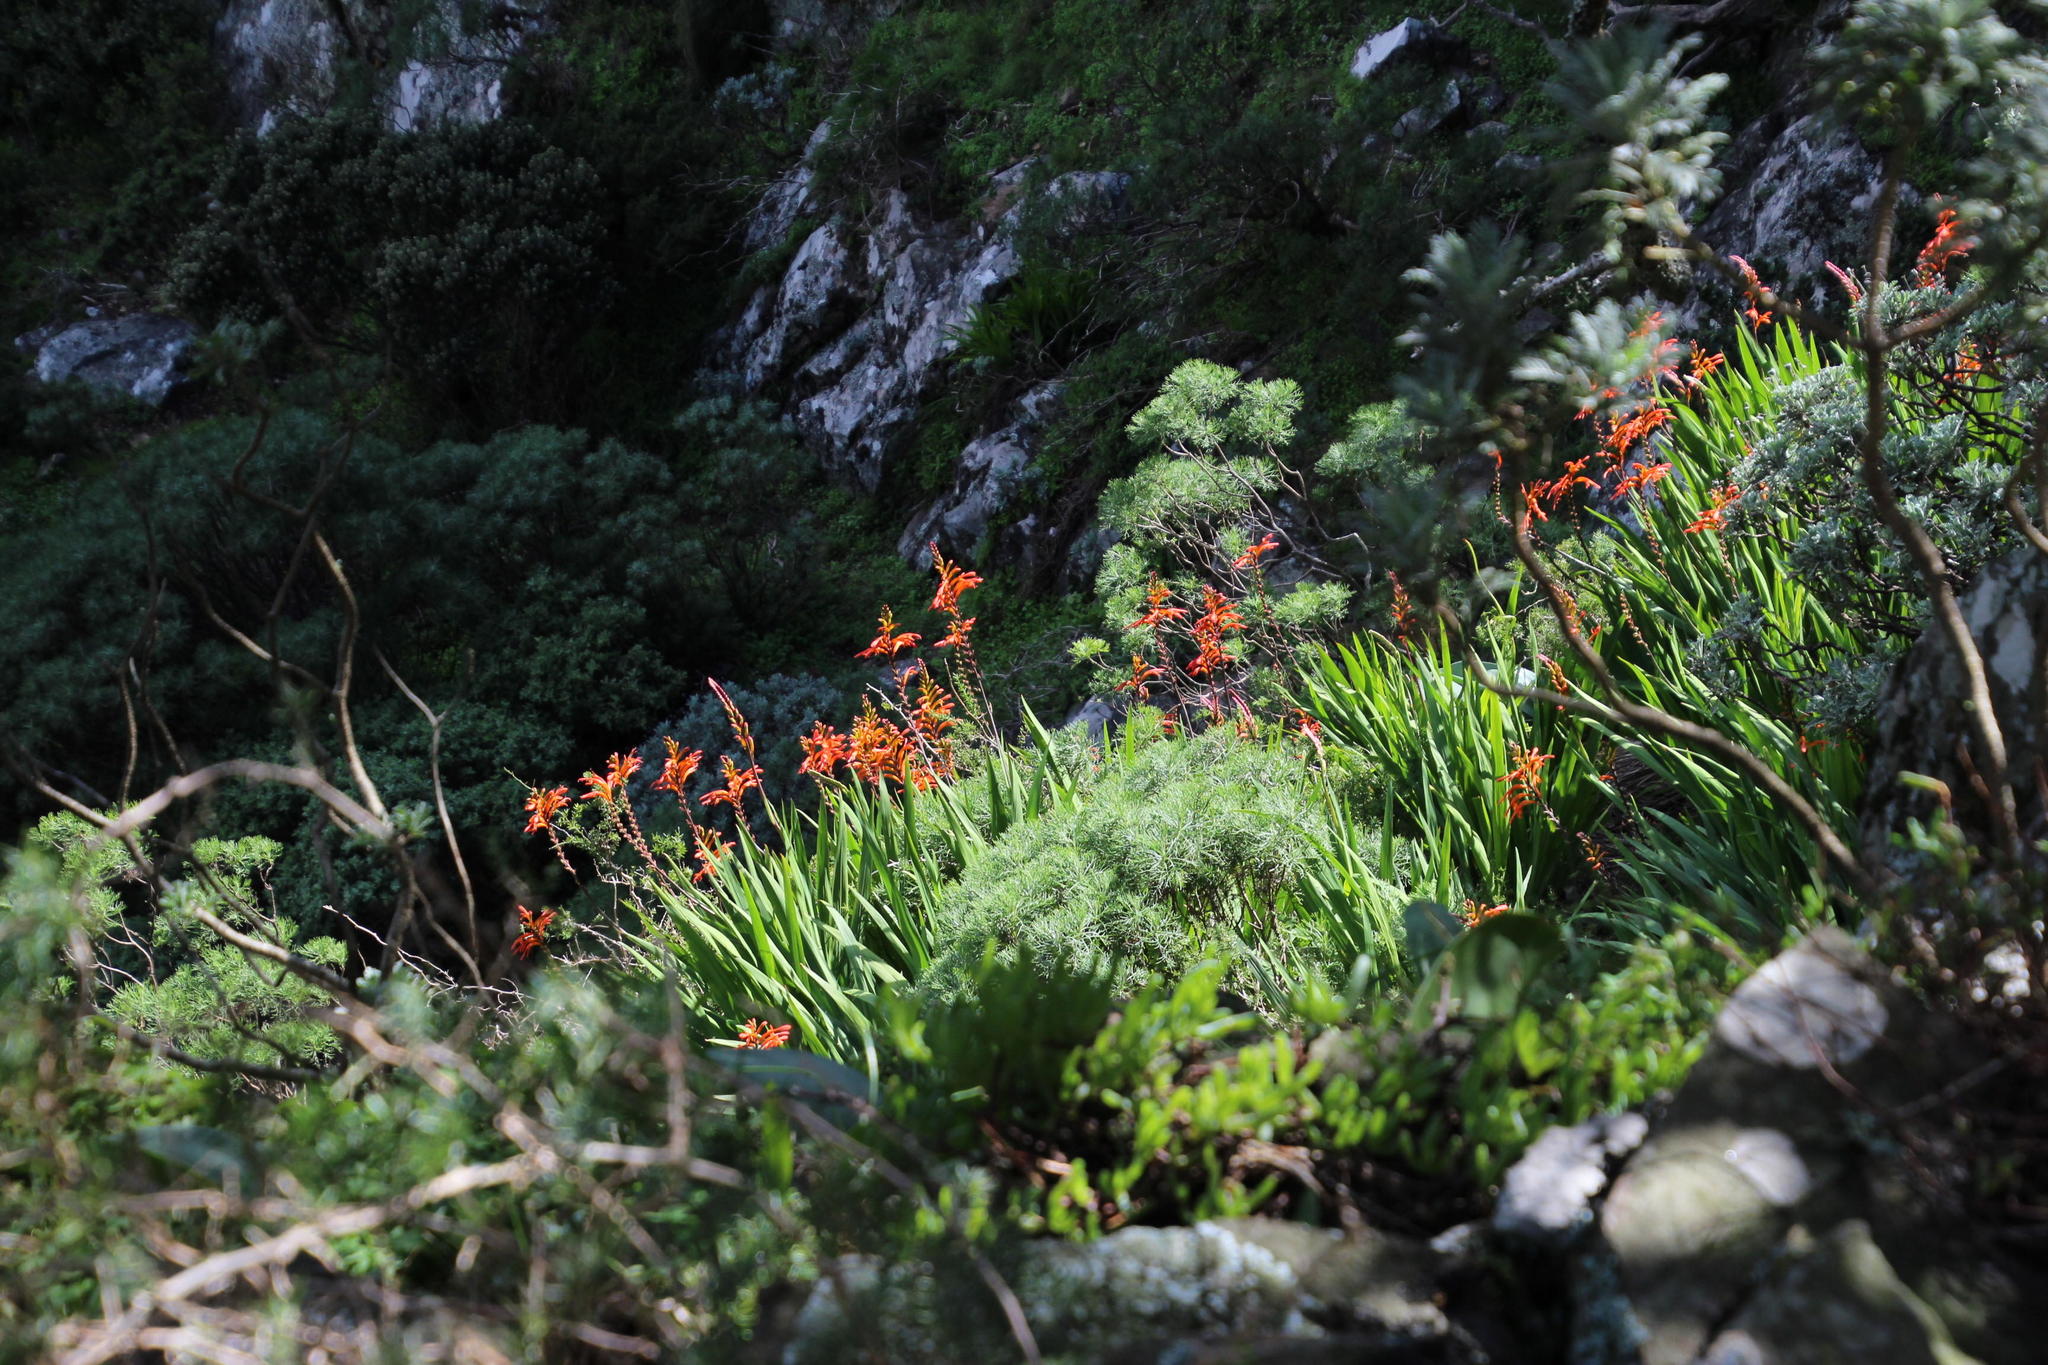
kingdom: Plantae
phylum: Tracheophyta
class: Liliopsida
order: Asparagales
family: Iridaceae
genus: Chasmanthe
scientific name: Chasmanthe aethiopica
